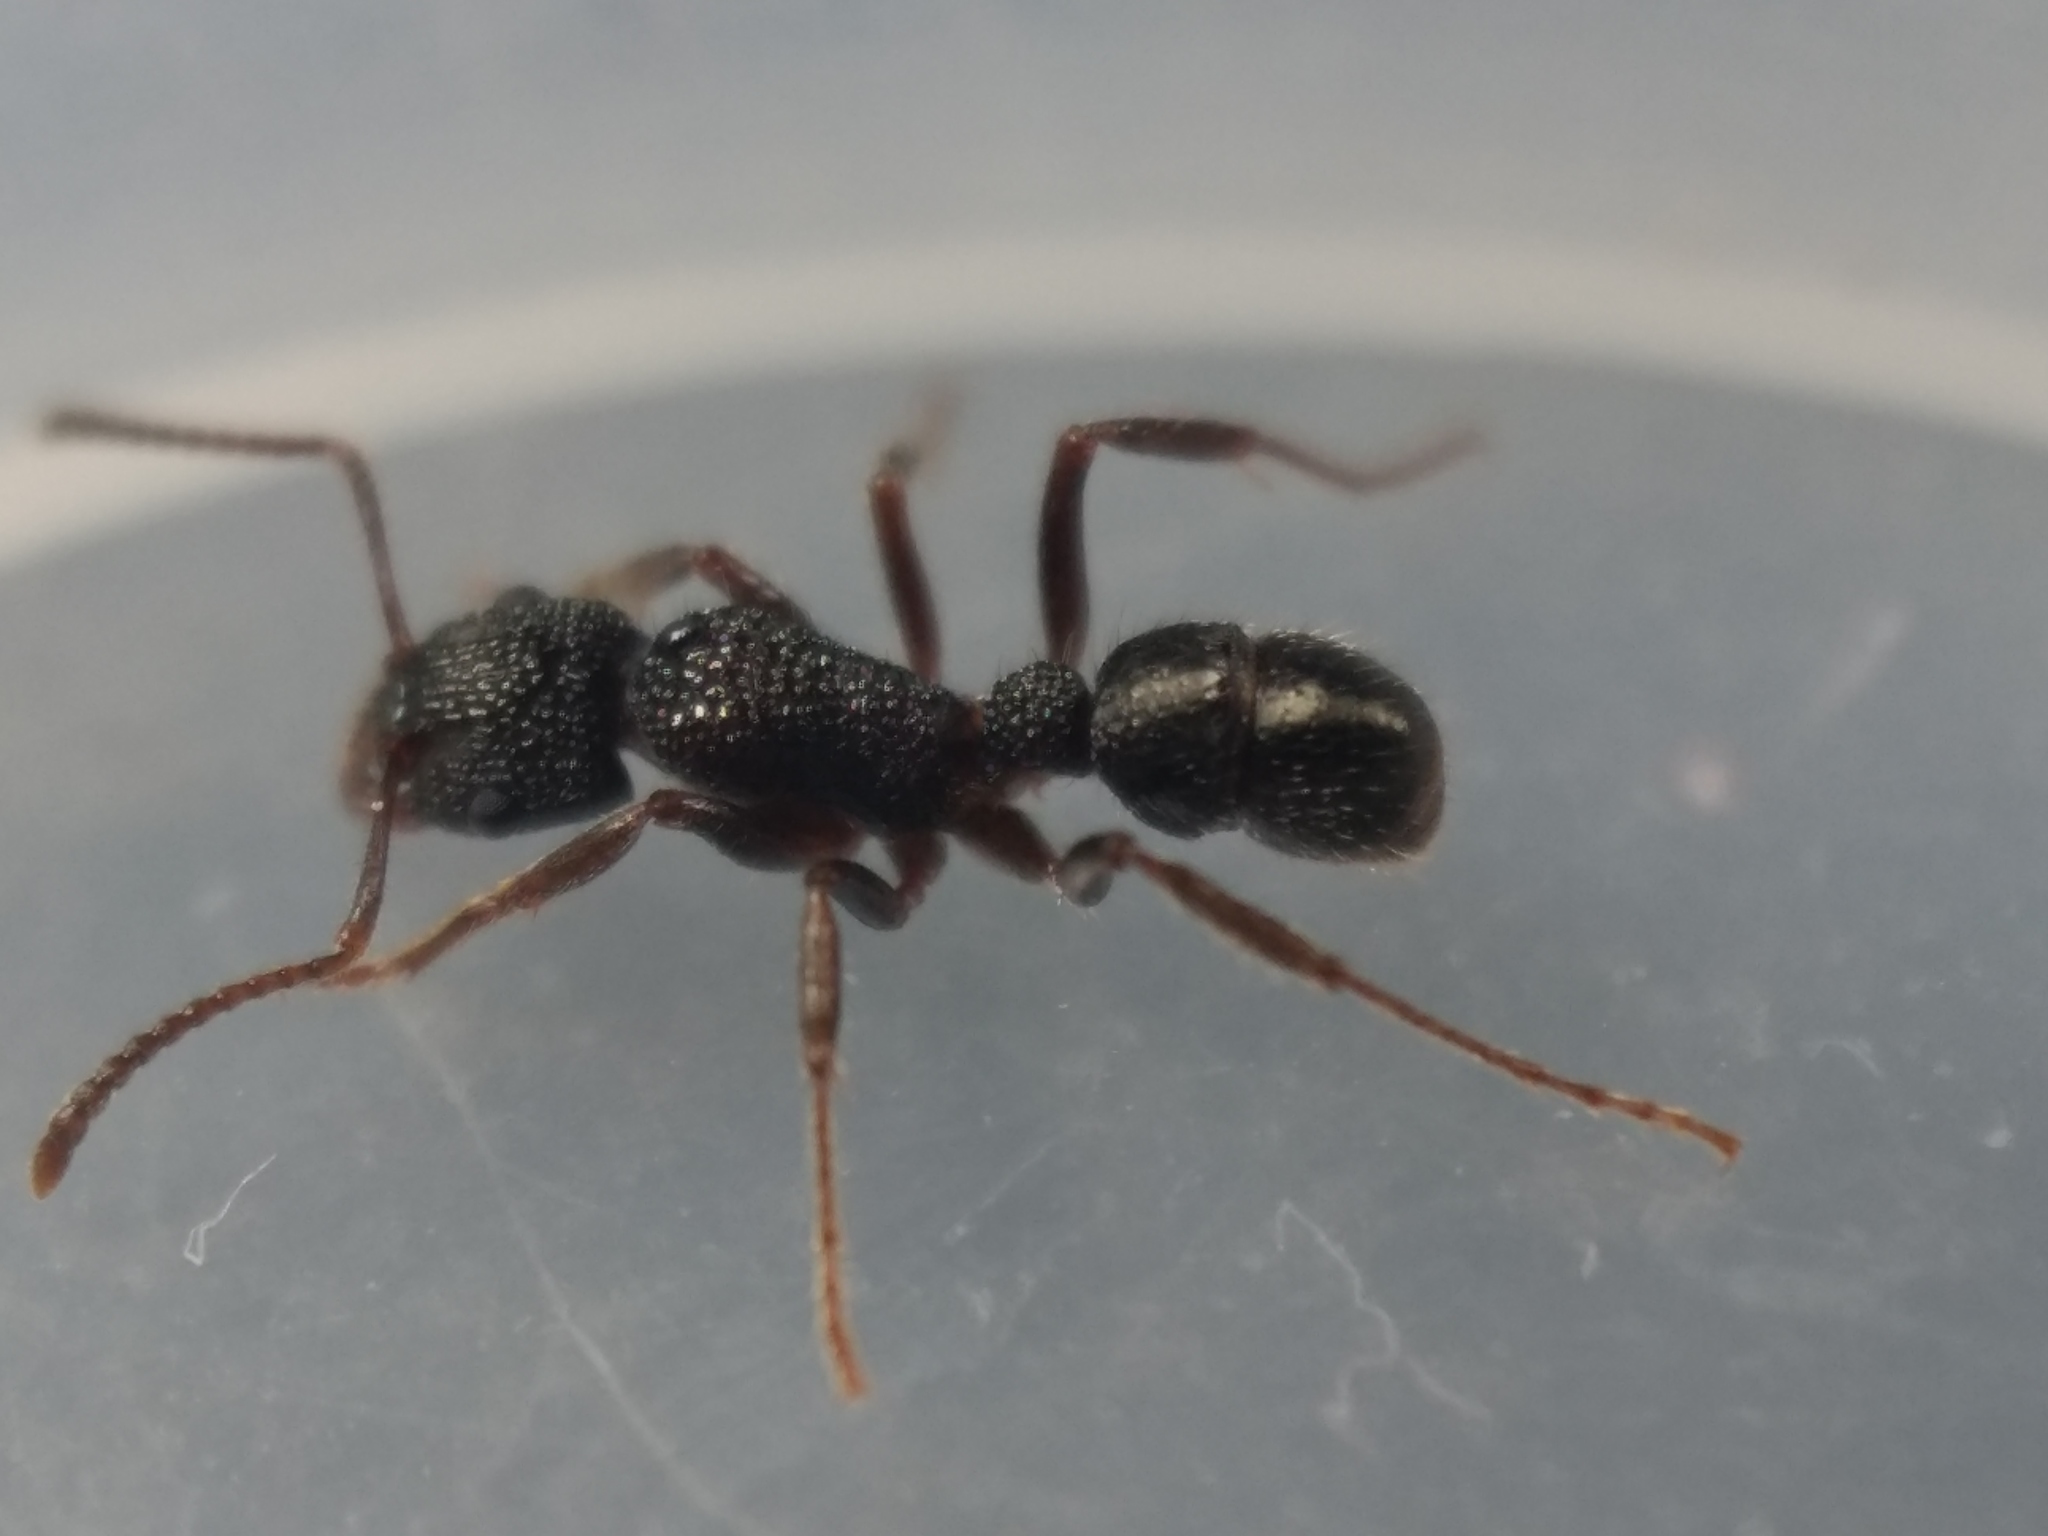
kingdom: Animalia
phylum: Arthropoda
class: Insecta
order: Hymenoptera
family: Formicidae
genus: Rhytidoponera
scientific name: Rhytidoponera anceps
